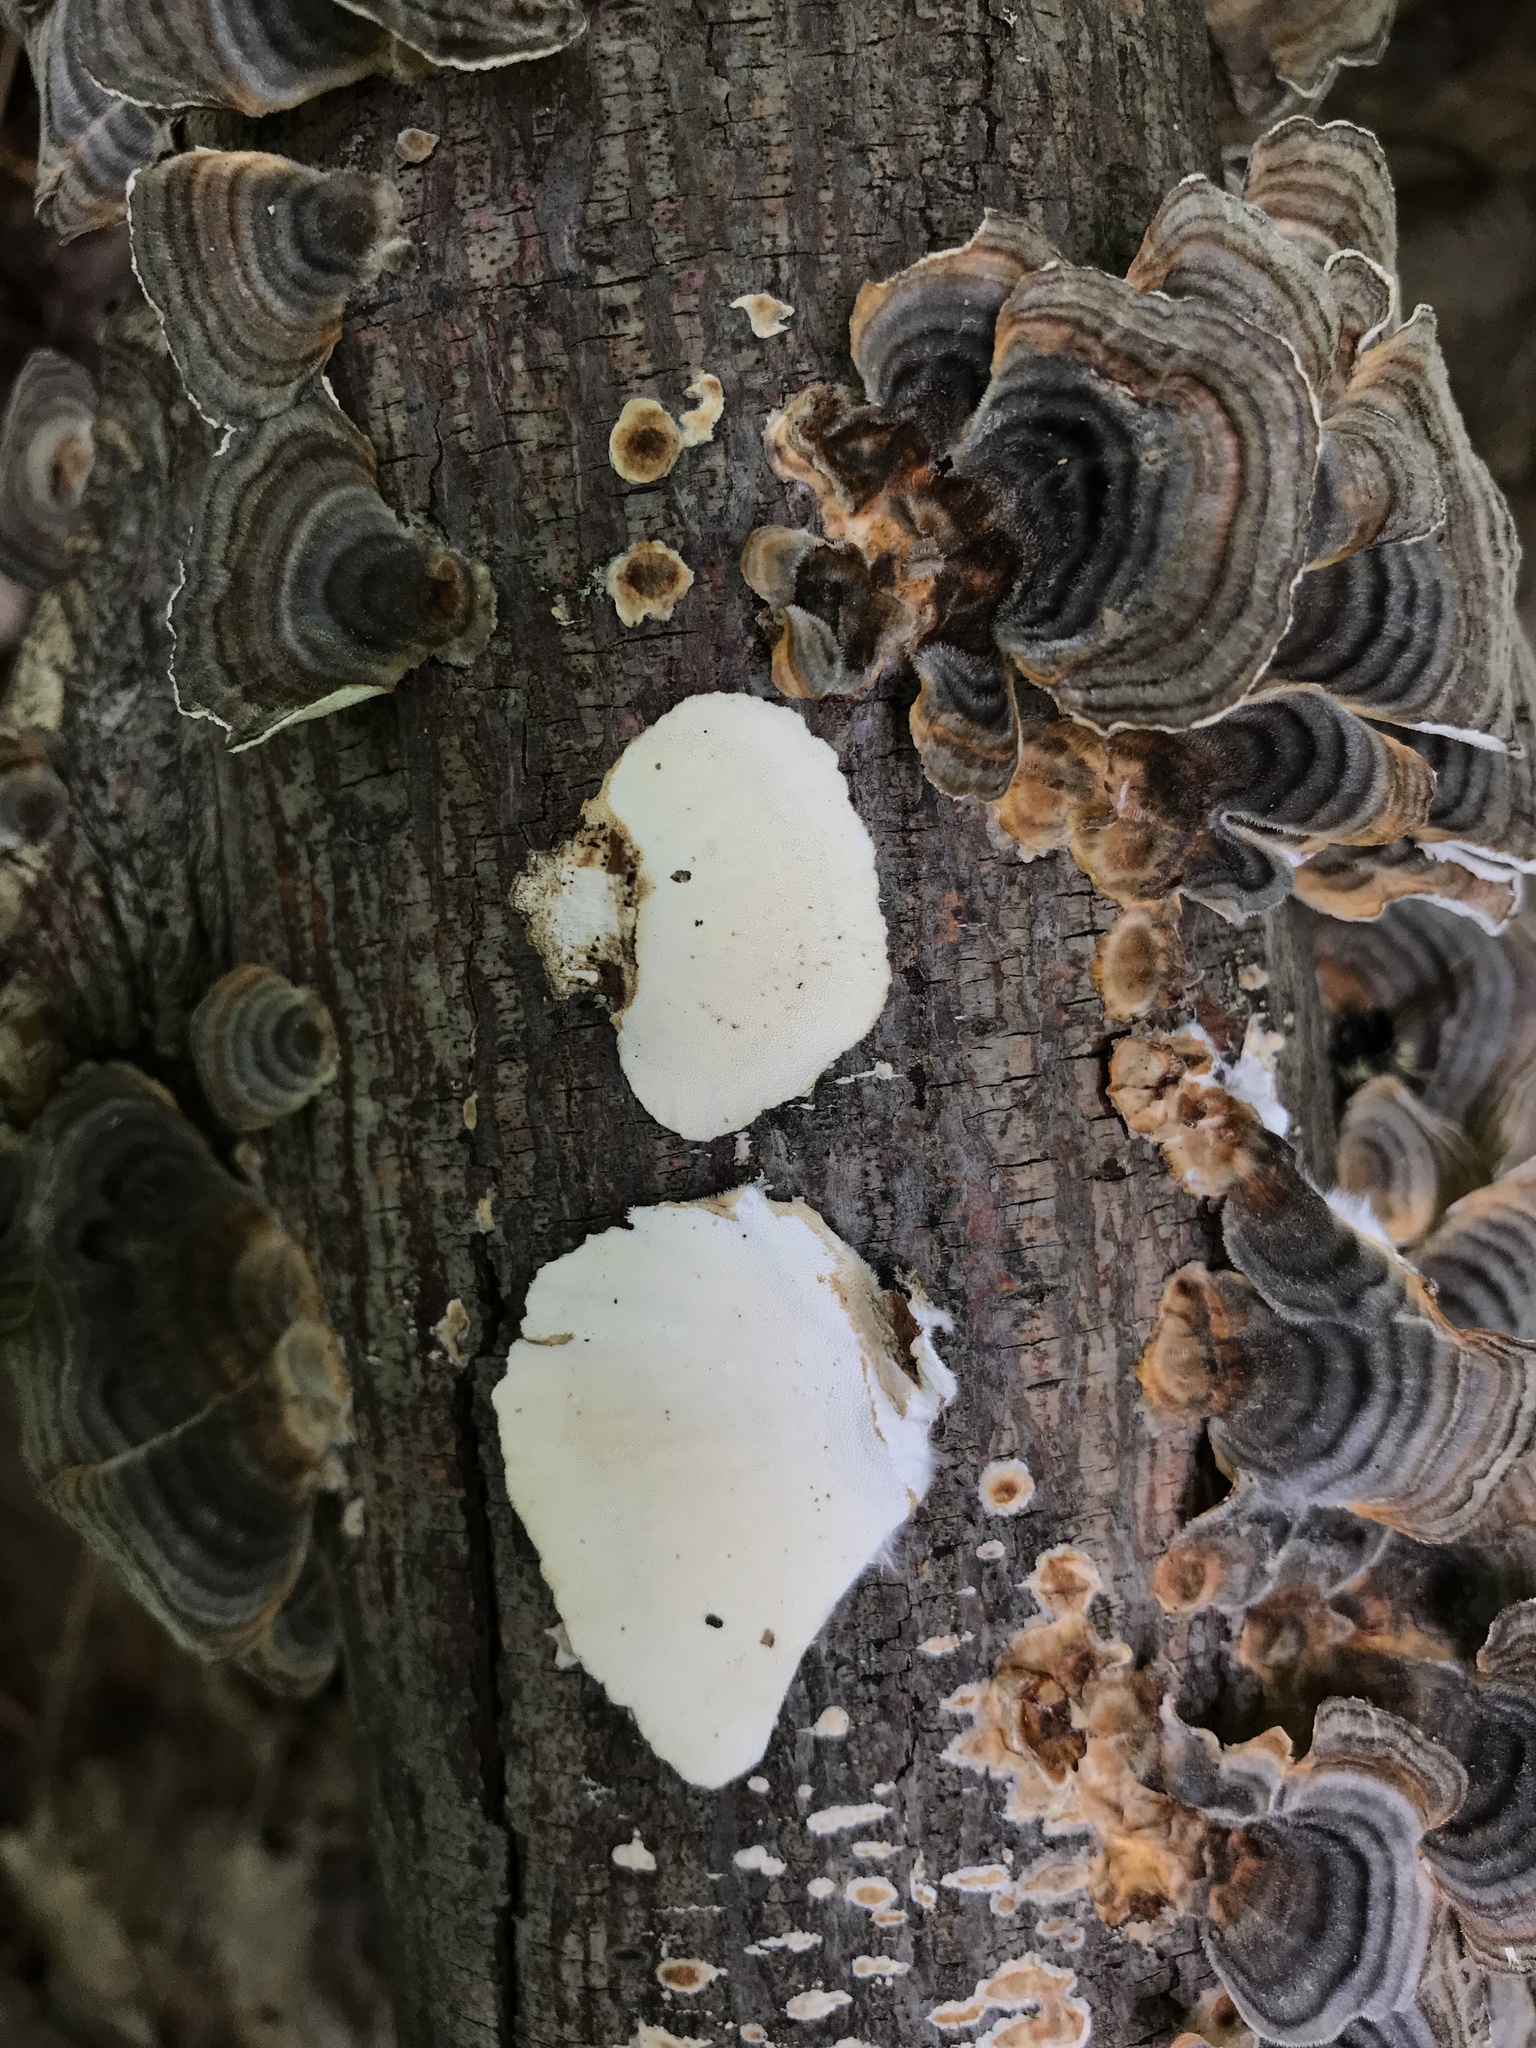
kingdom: Fungi
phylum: Basidiomycota
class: Agaricomycetes
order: Polyporales
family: Polyporaceae
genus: Trametes
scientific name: Trametes versicolor
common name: Turkeytail
